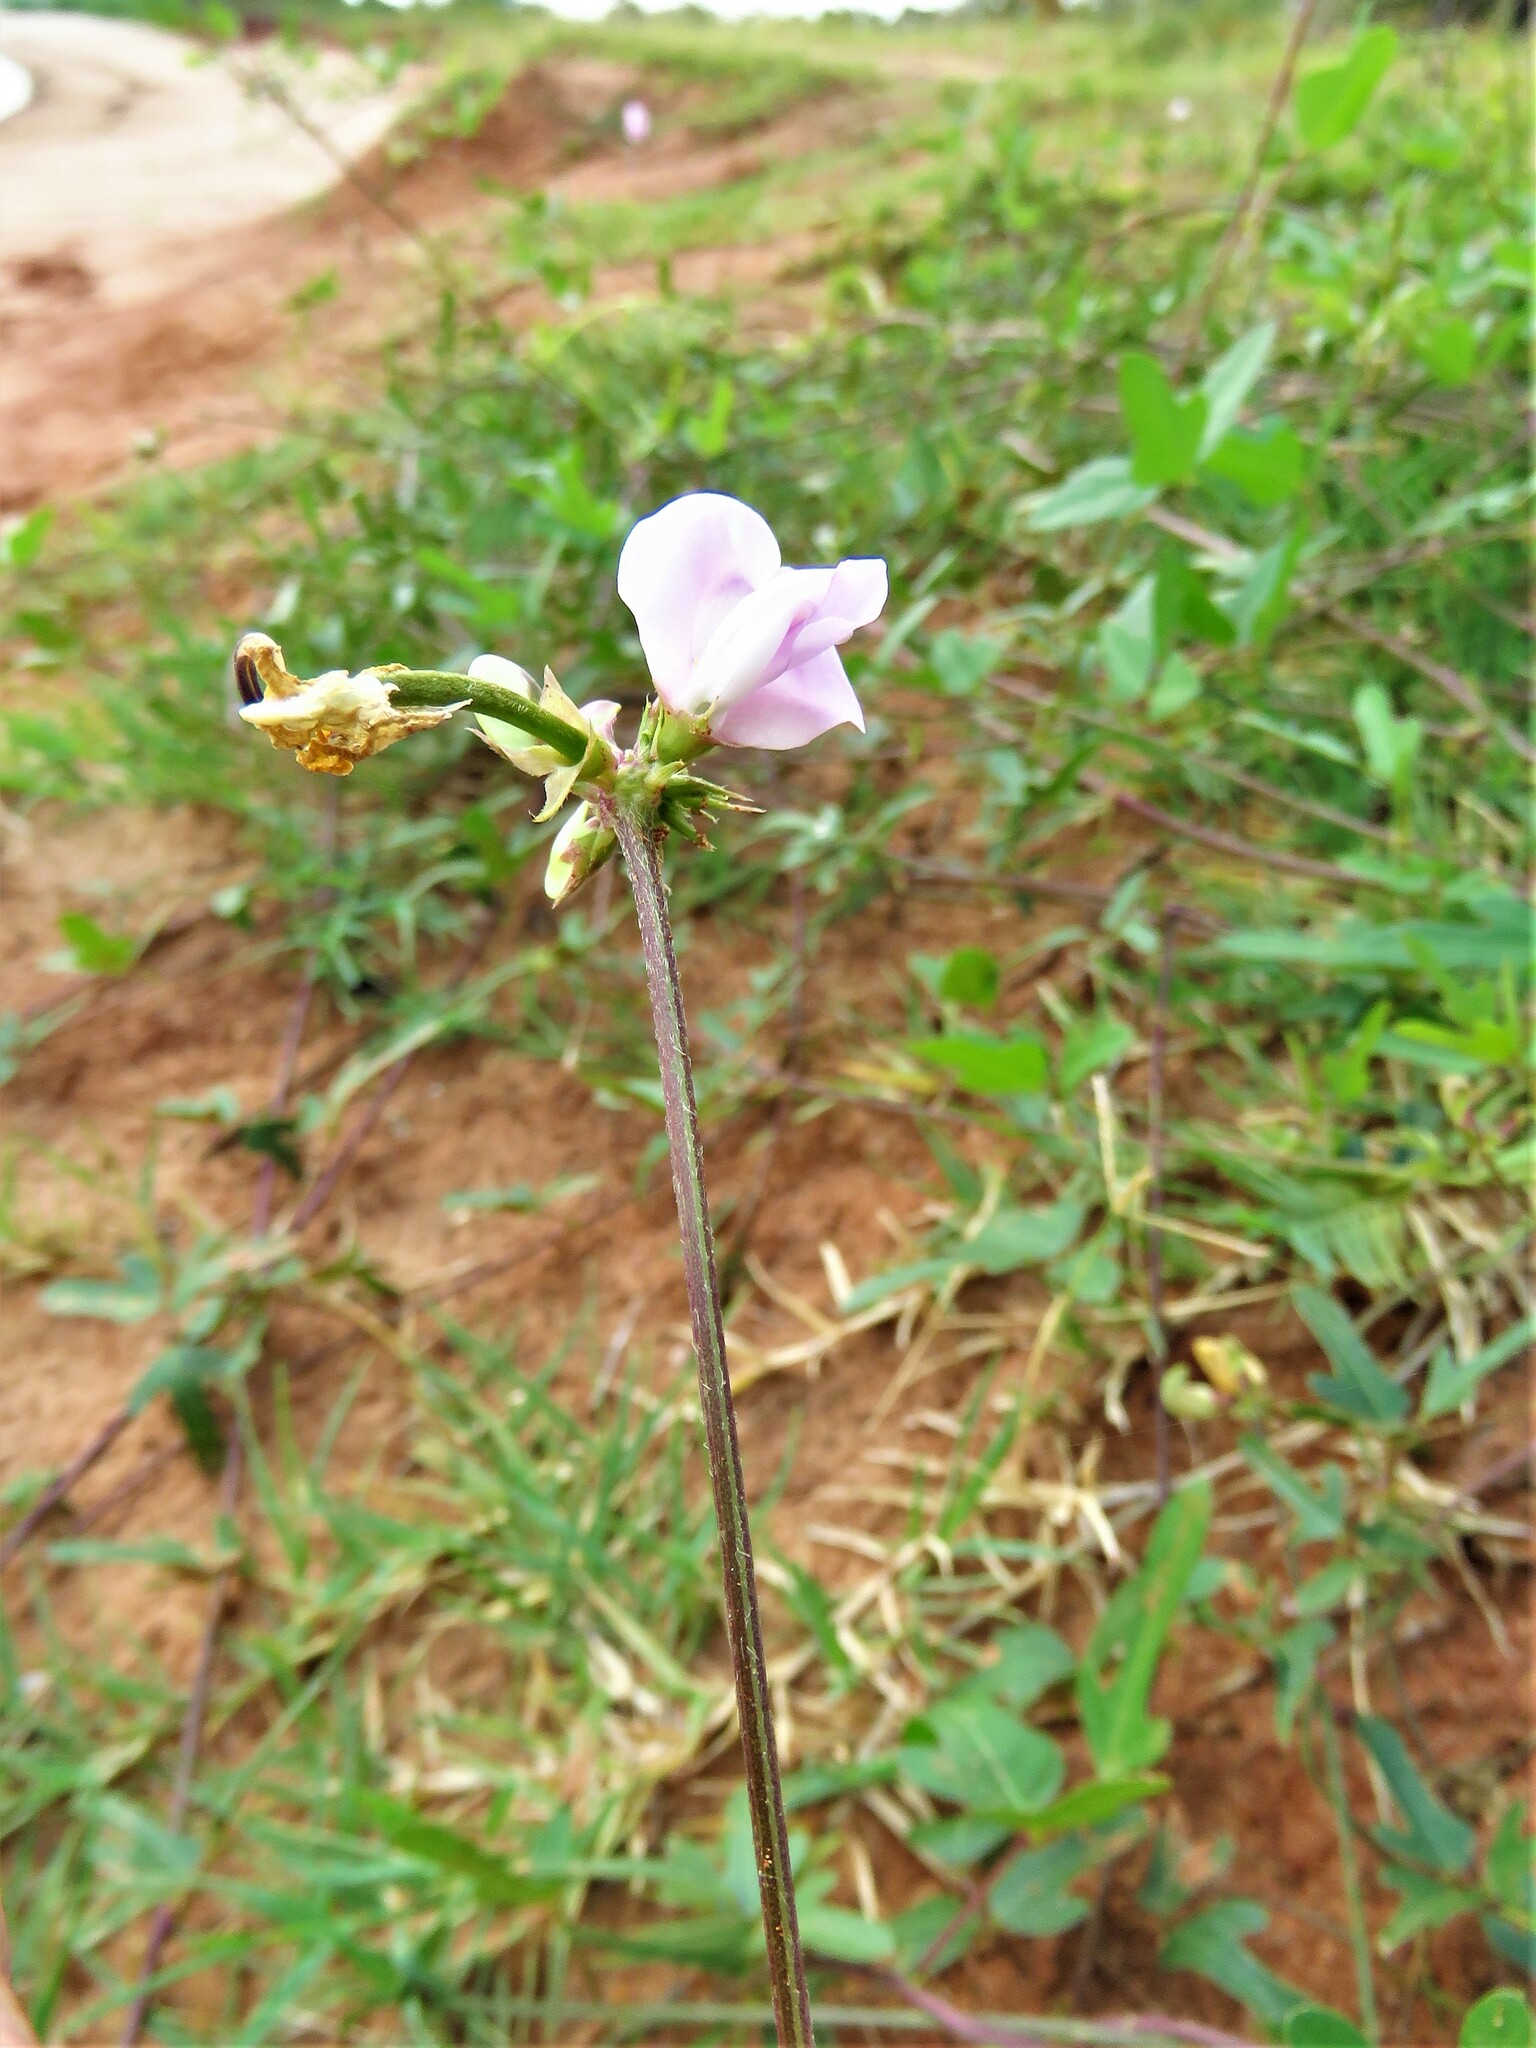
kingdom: Plantae
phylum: Tracheophyta
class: Magnoliopsida
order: Fabales
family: Fabaceae
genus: Strophostyles
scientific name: Strophostyles helvola
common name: Trailing wild bean
